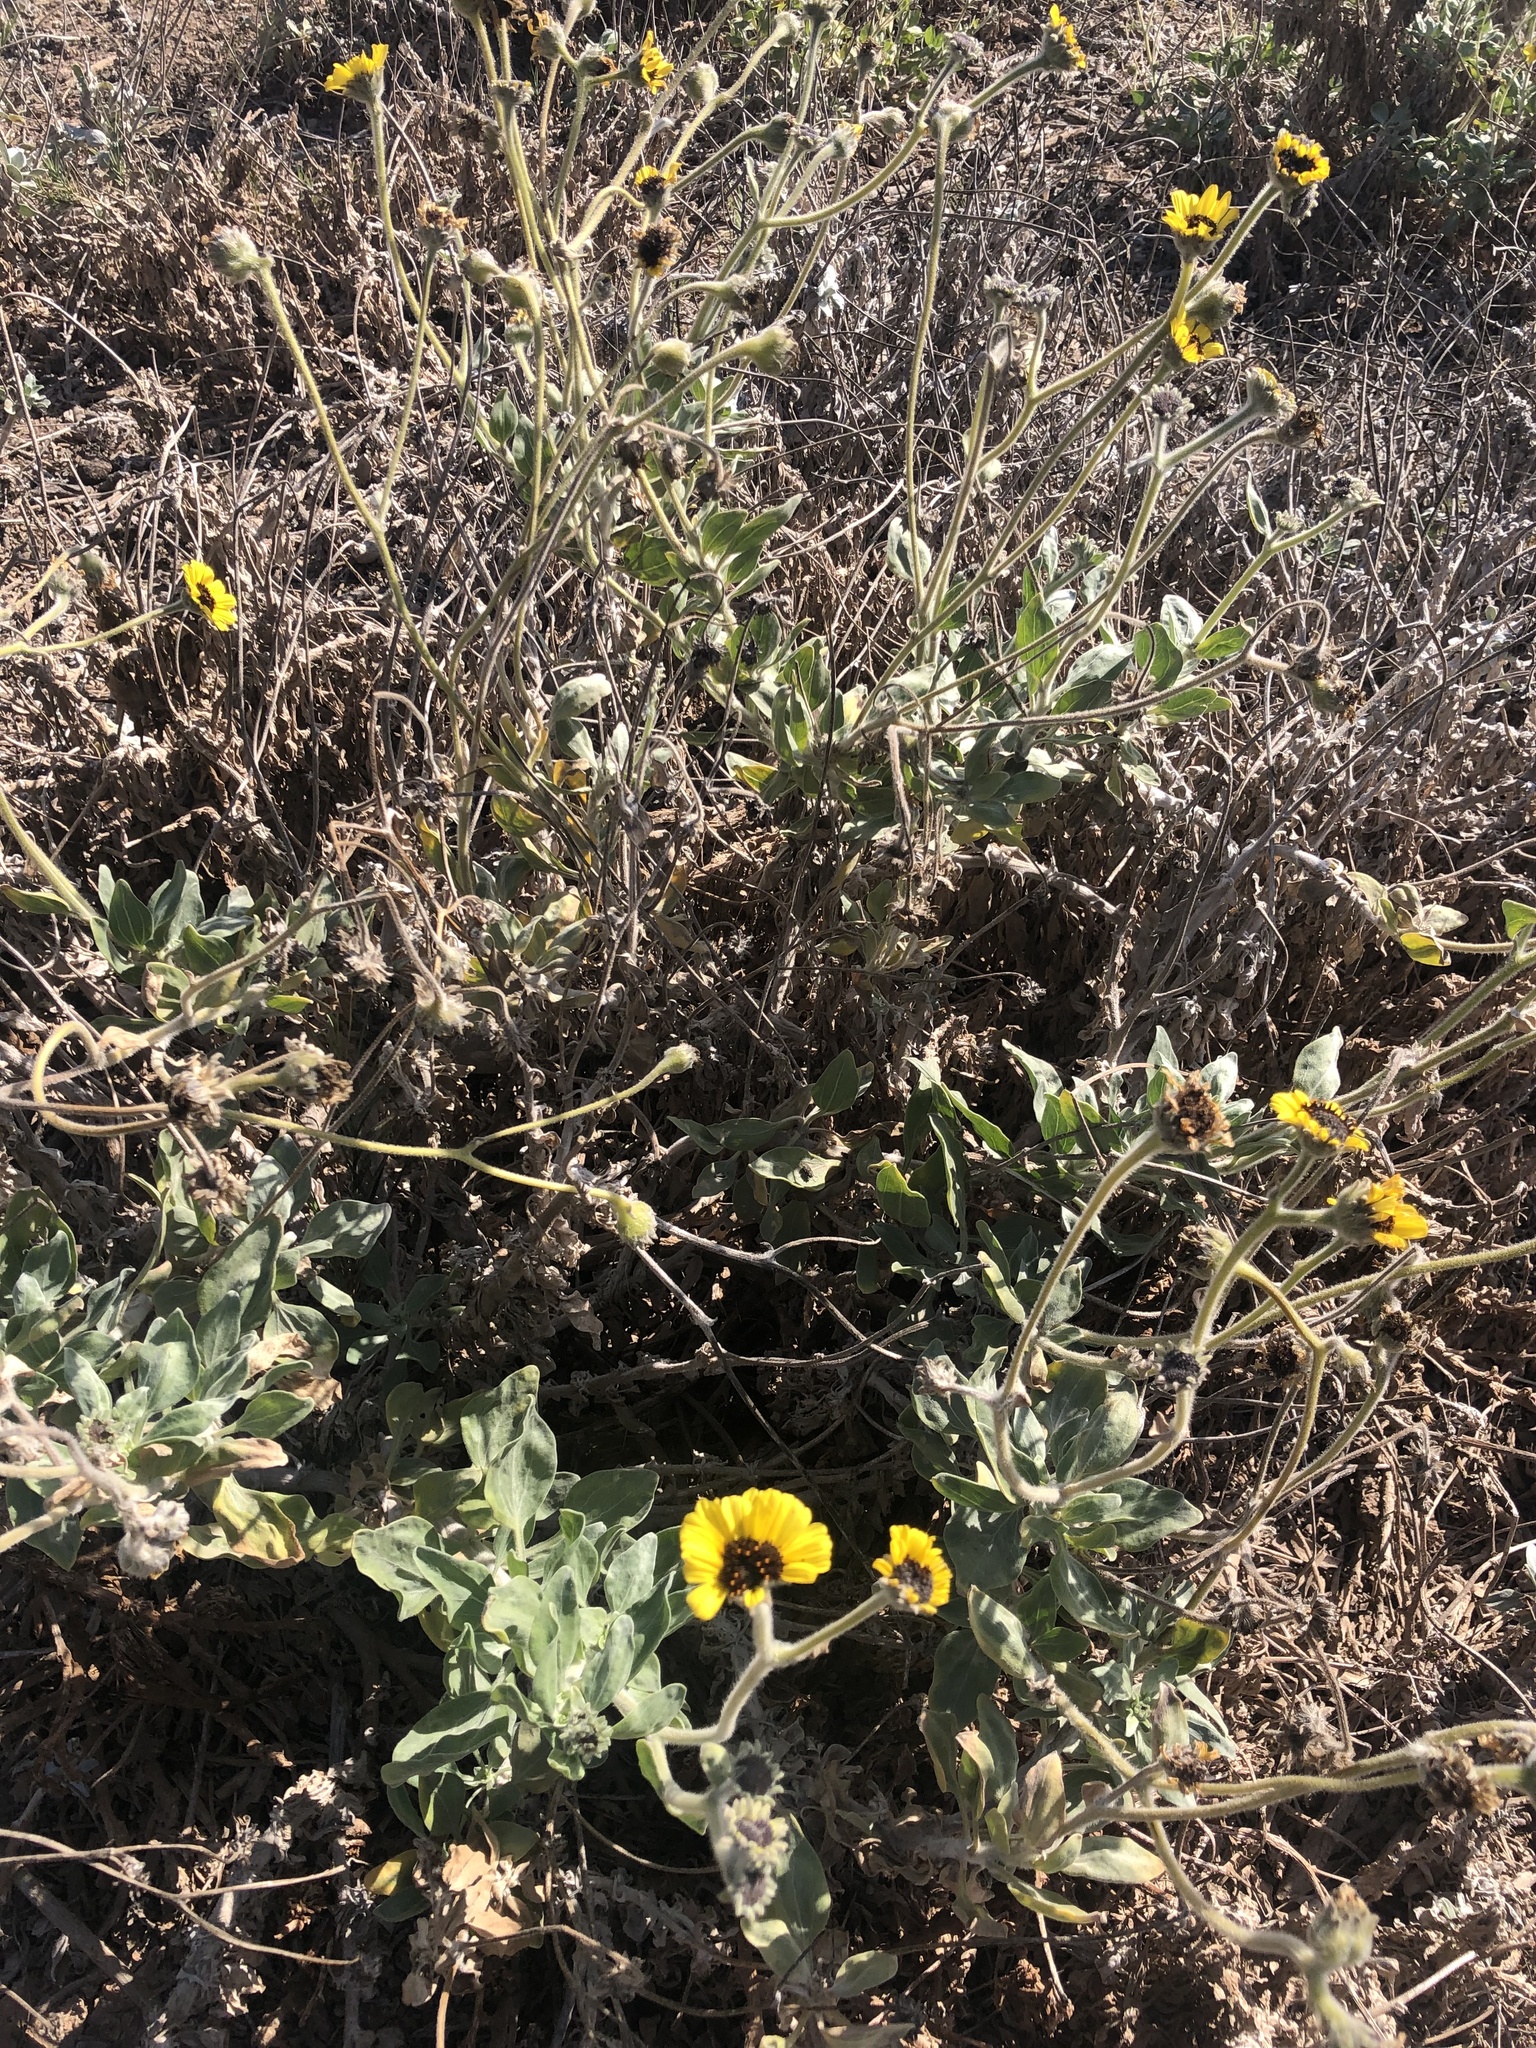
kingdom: Plantae
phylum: Tracheophyta
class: Magnoliopsida
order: Asterales
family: Asteraceae
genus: Encelia
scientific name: Encelia canescens
